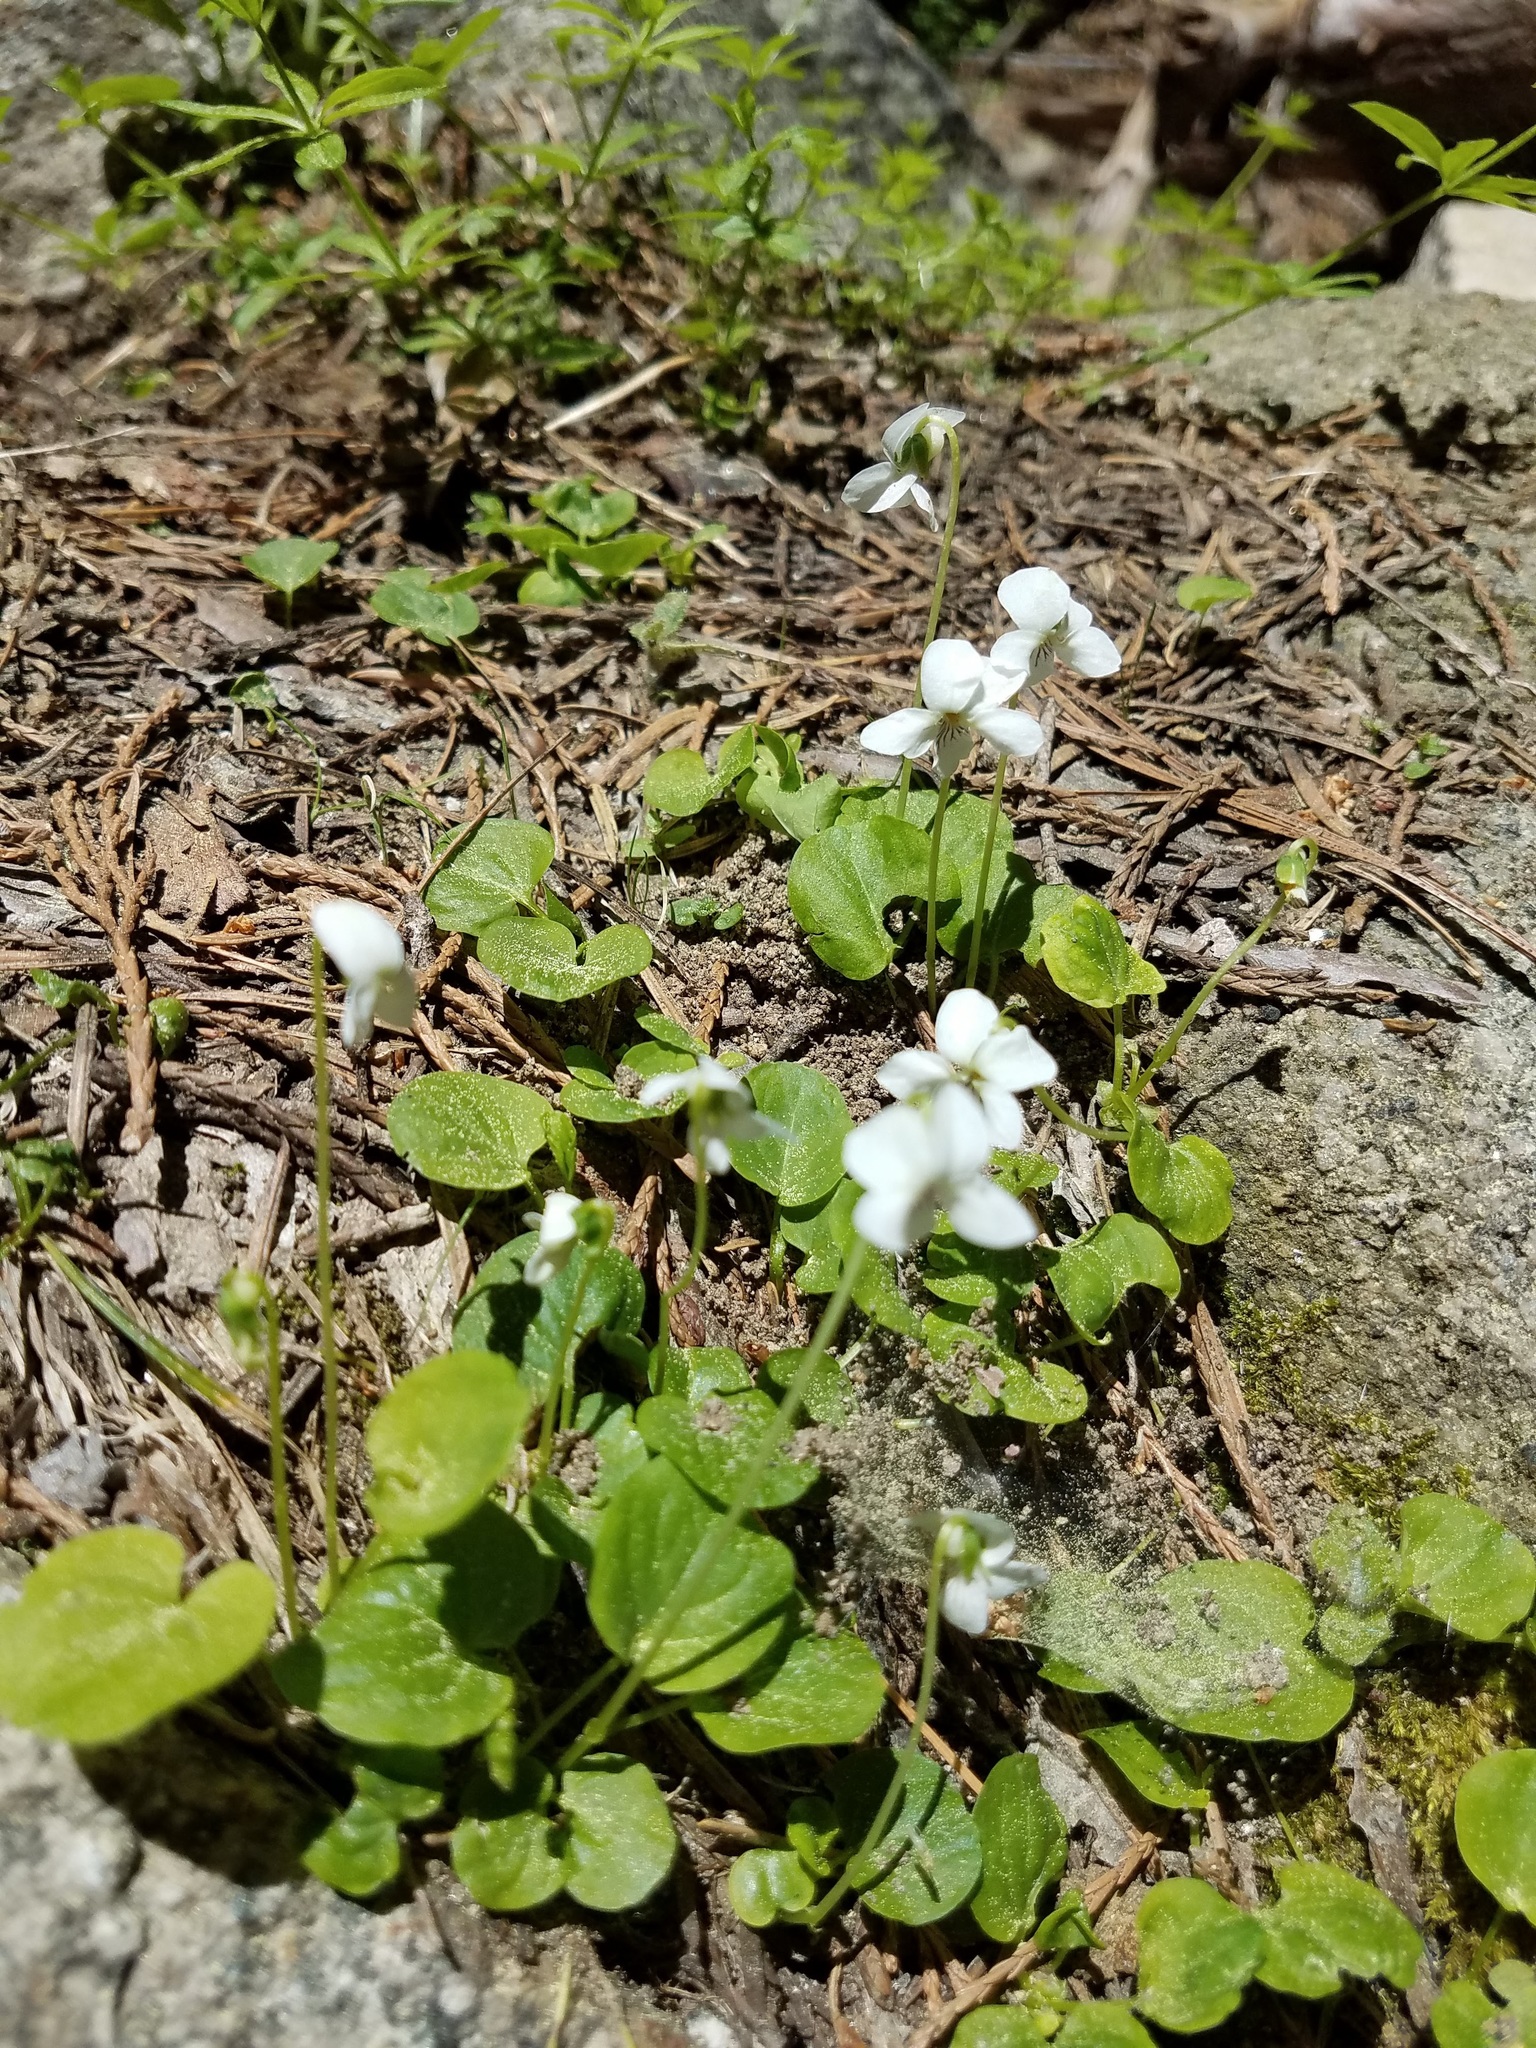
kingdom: Plantae
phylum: Tracheophyta
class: Magnoliopsida
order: Malpighiales
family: Violaceae
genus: Viola
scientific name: Viola macloskeyi
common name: Macloskey's violet
